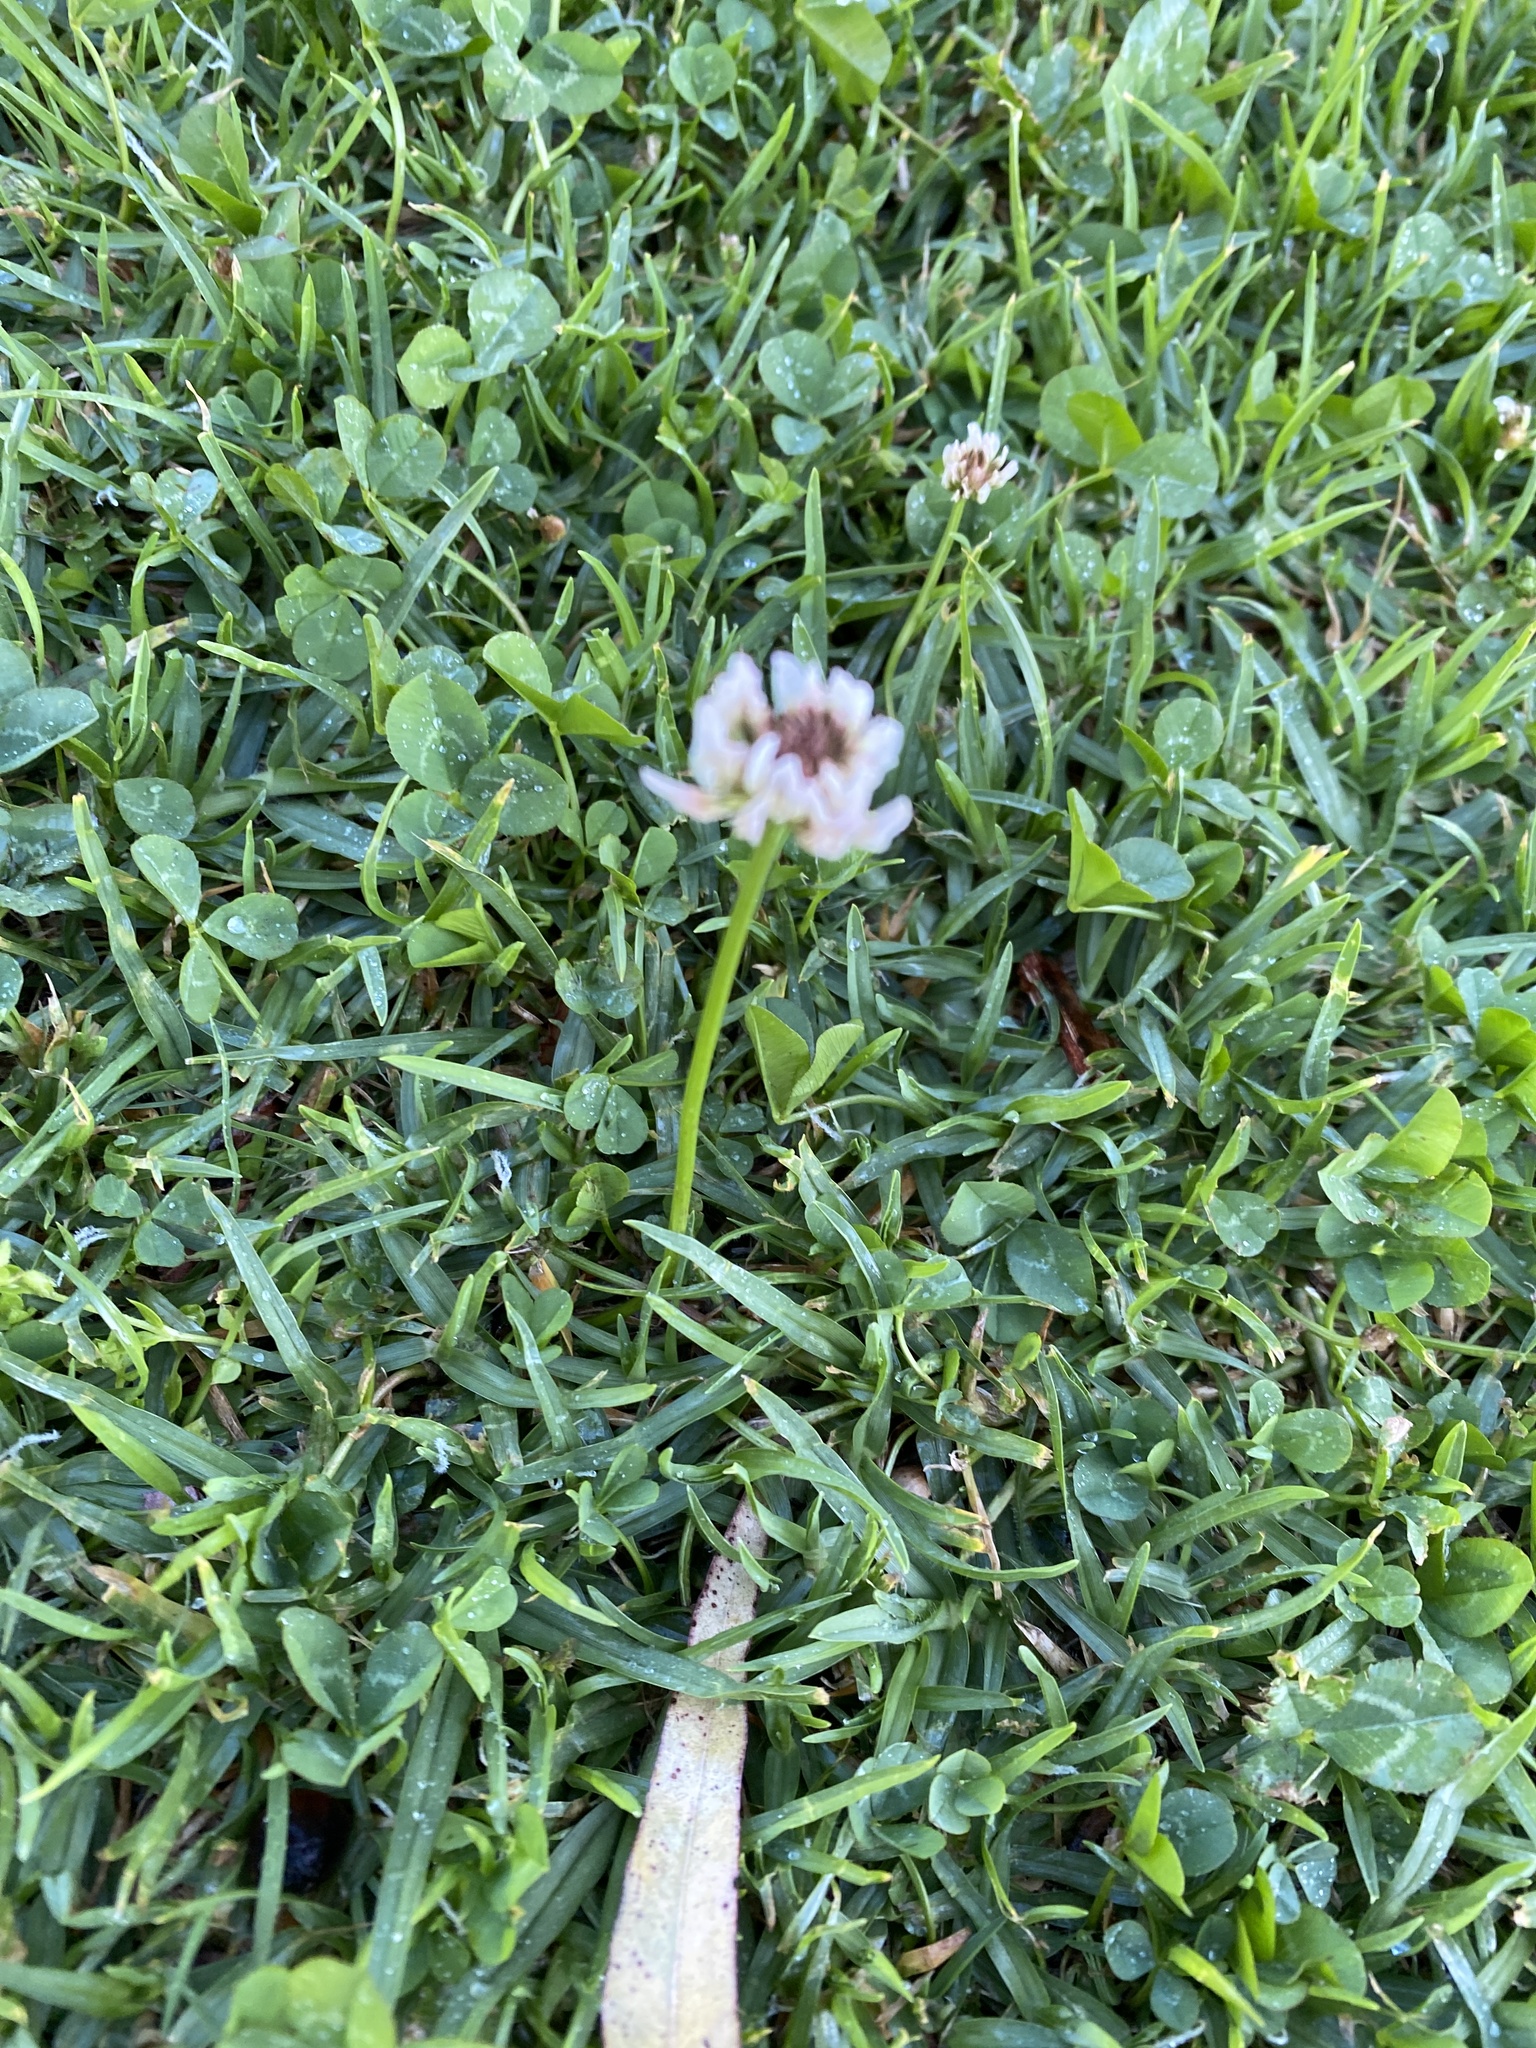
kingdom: Plantae
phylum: Tracheophyta
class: Magnoliopsida
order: Fabales
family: Fabaceae
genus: Trifolium
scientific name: Trifolium repens
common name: White clover
